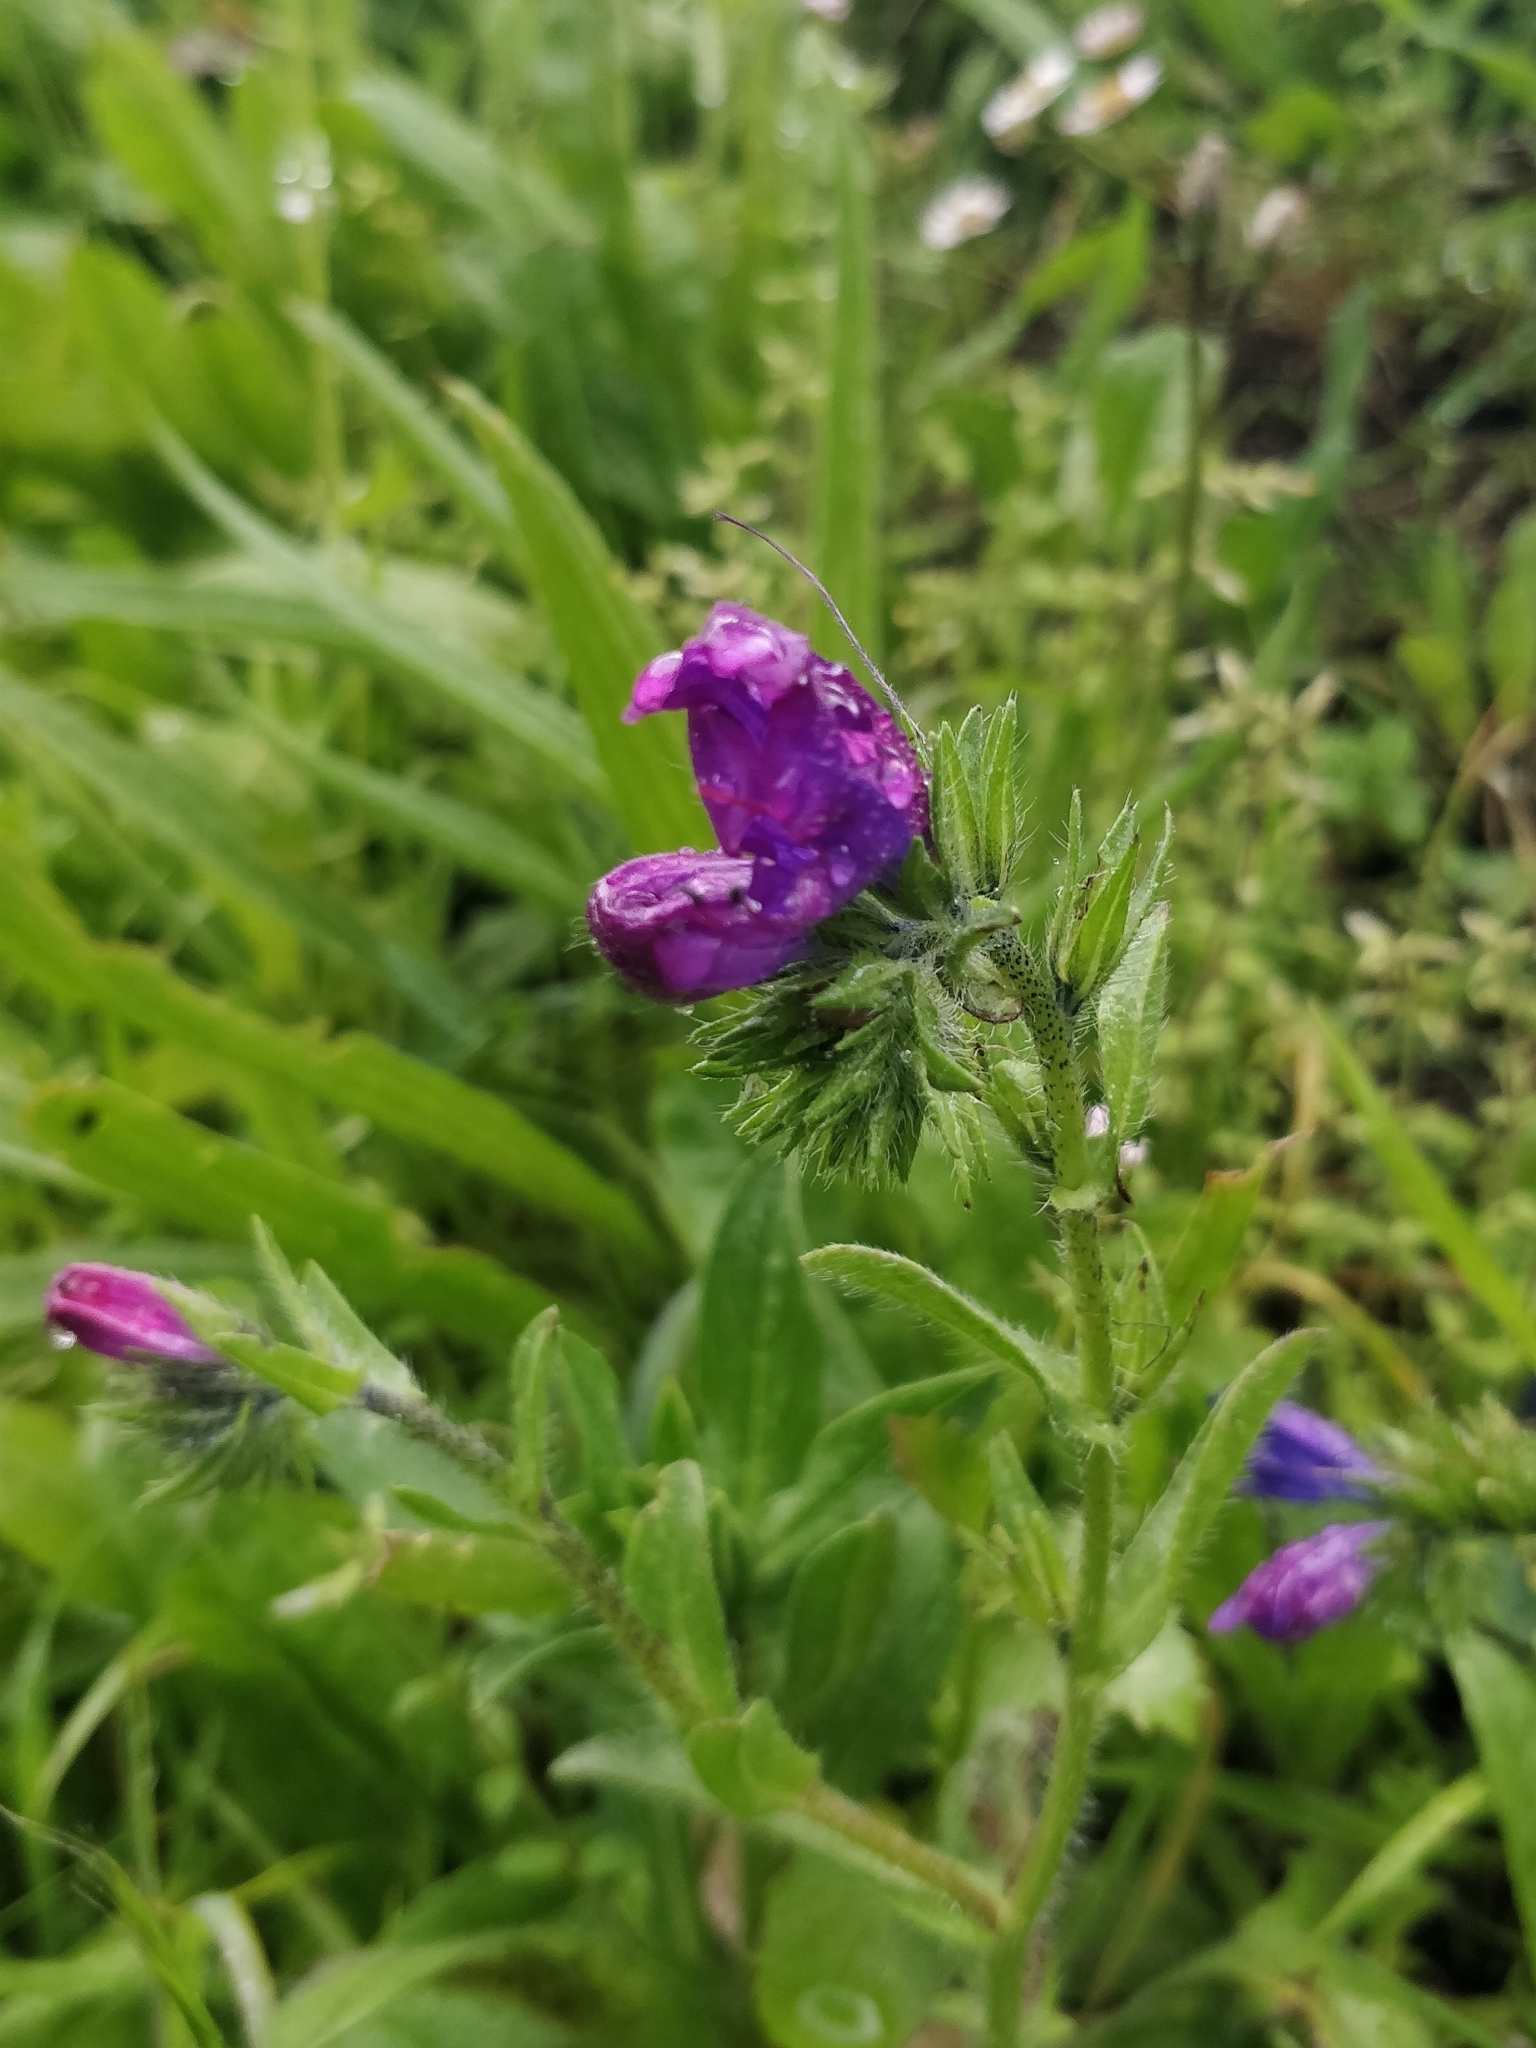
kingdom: Plantae
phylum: Tracheophyta
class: Magnoliopsida
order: Boraginales
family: Boraginaceae
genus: Echium
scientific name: Echium plantagineum
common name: Purple viper's-bugloss
